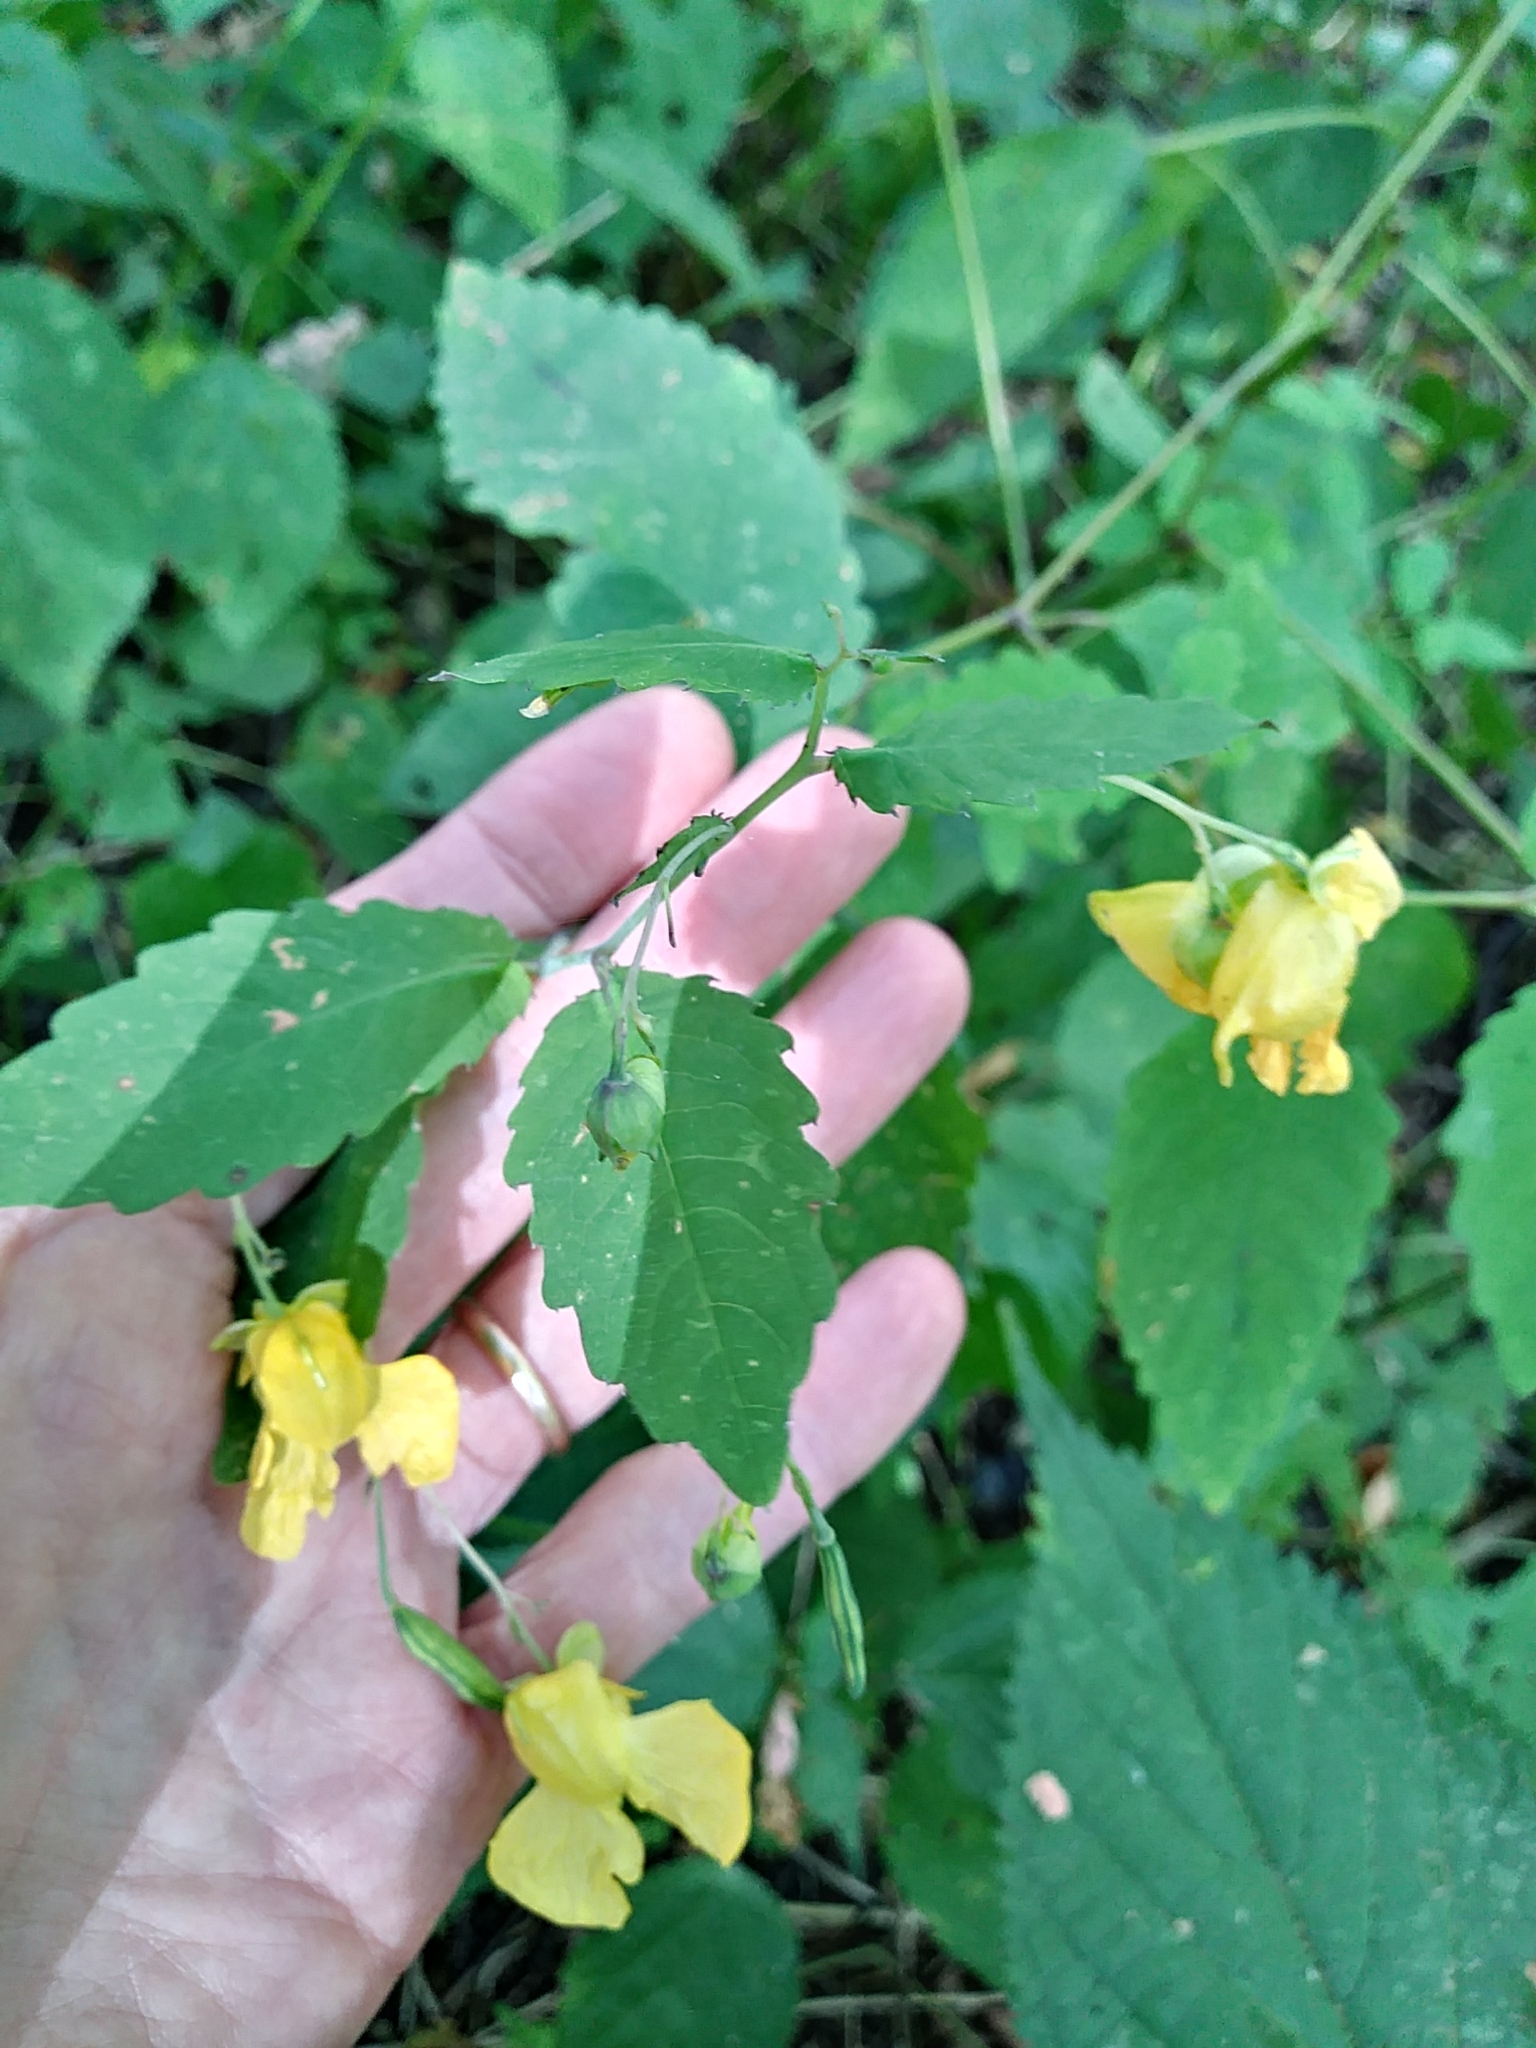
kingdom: Plantae
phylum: Tracheophyta
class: Magnoliopsida
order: Ericales
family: Balsaminaceae
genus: Impatiens
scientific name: Impatiens pallida
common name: Pale snapweed
